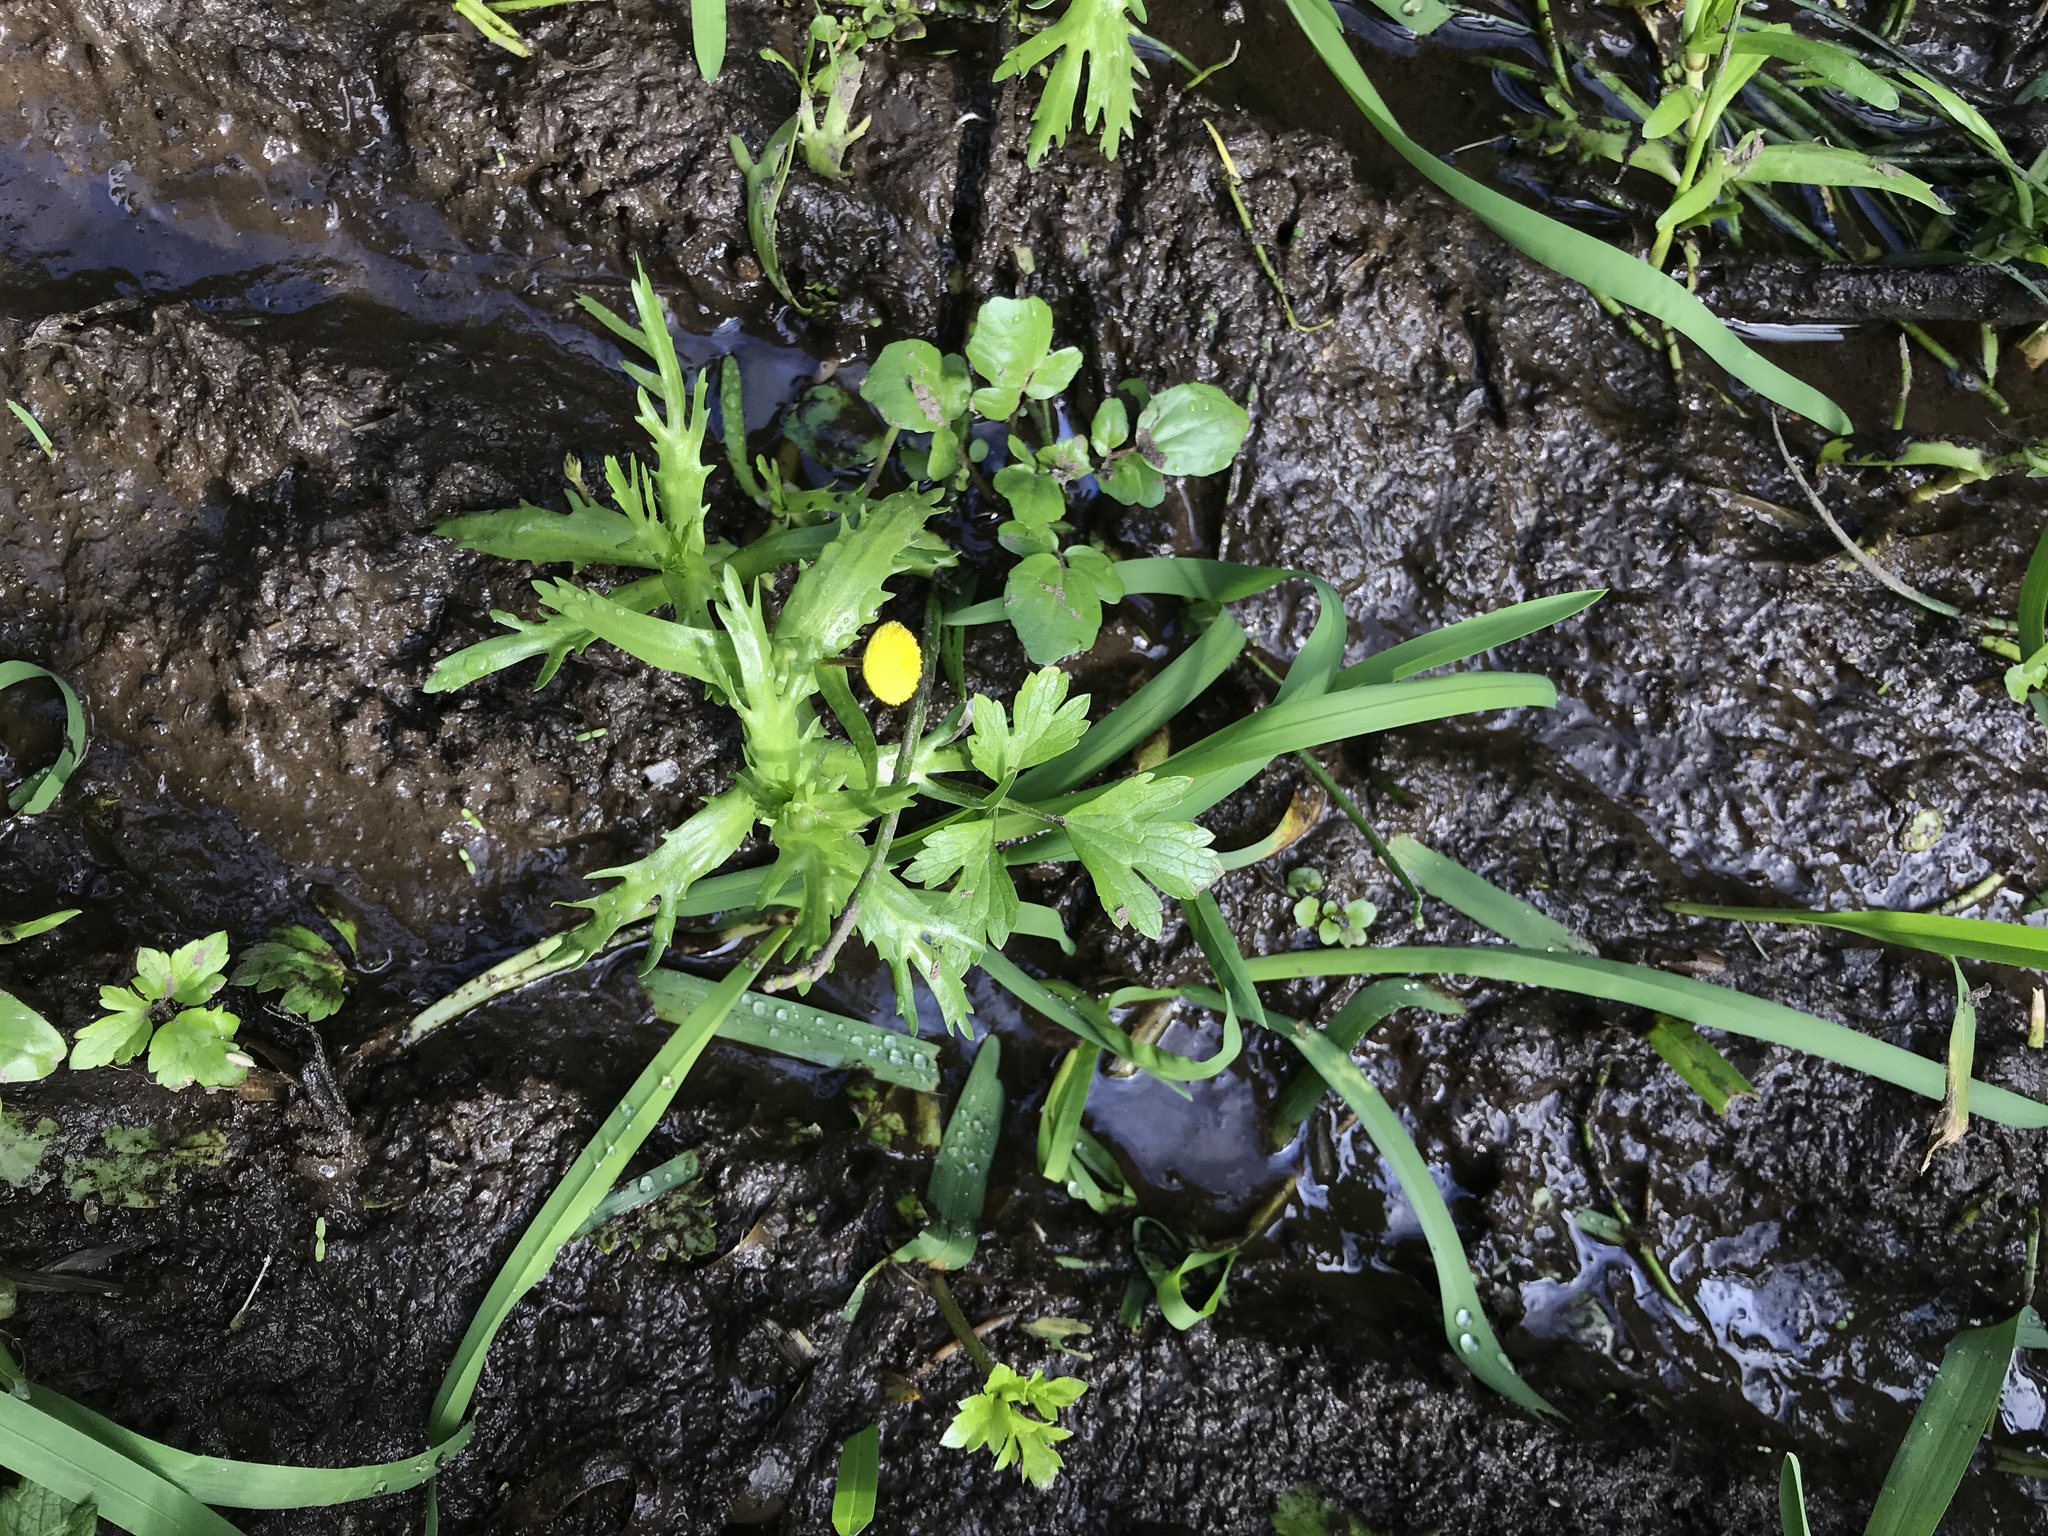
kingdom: Plantae
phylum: Tracheophyta
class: Magnoliopsida
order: Asterales
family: Asteraceae
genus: Cotula
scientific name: Cotula coronopifolia
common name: Buttonweed
